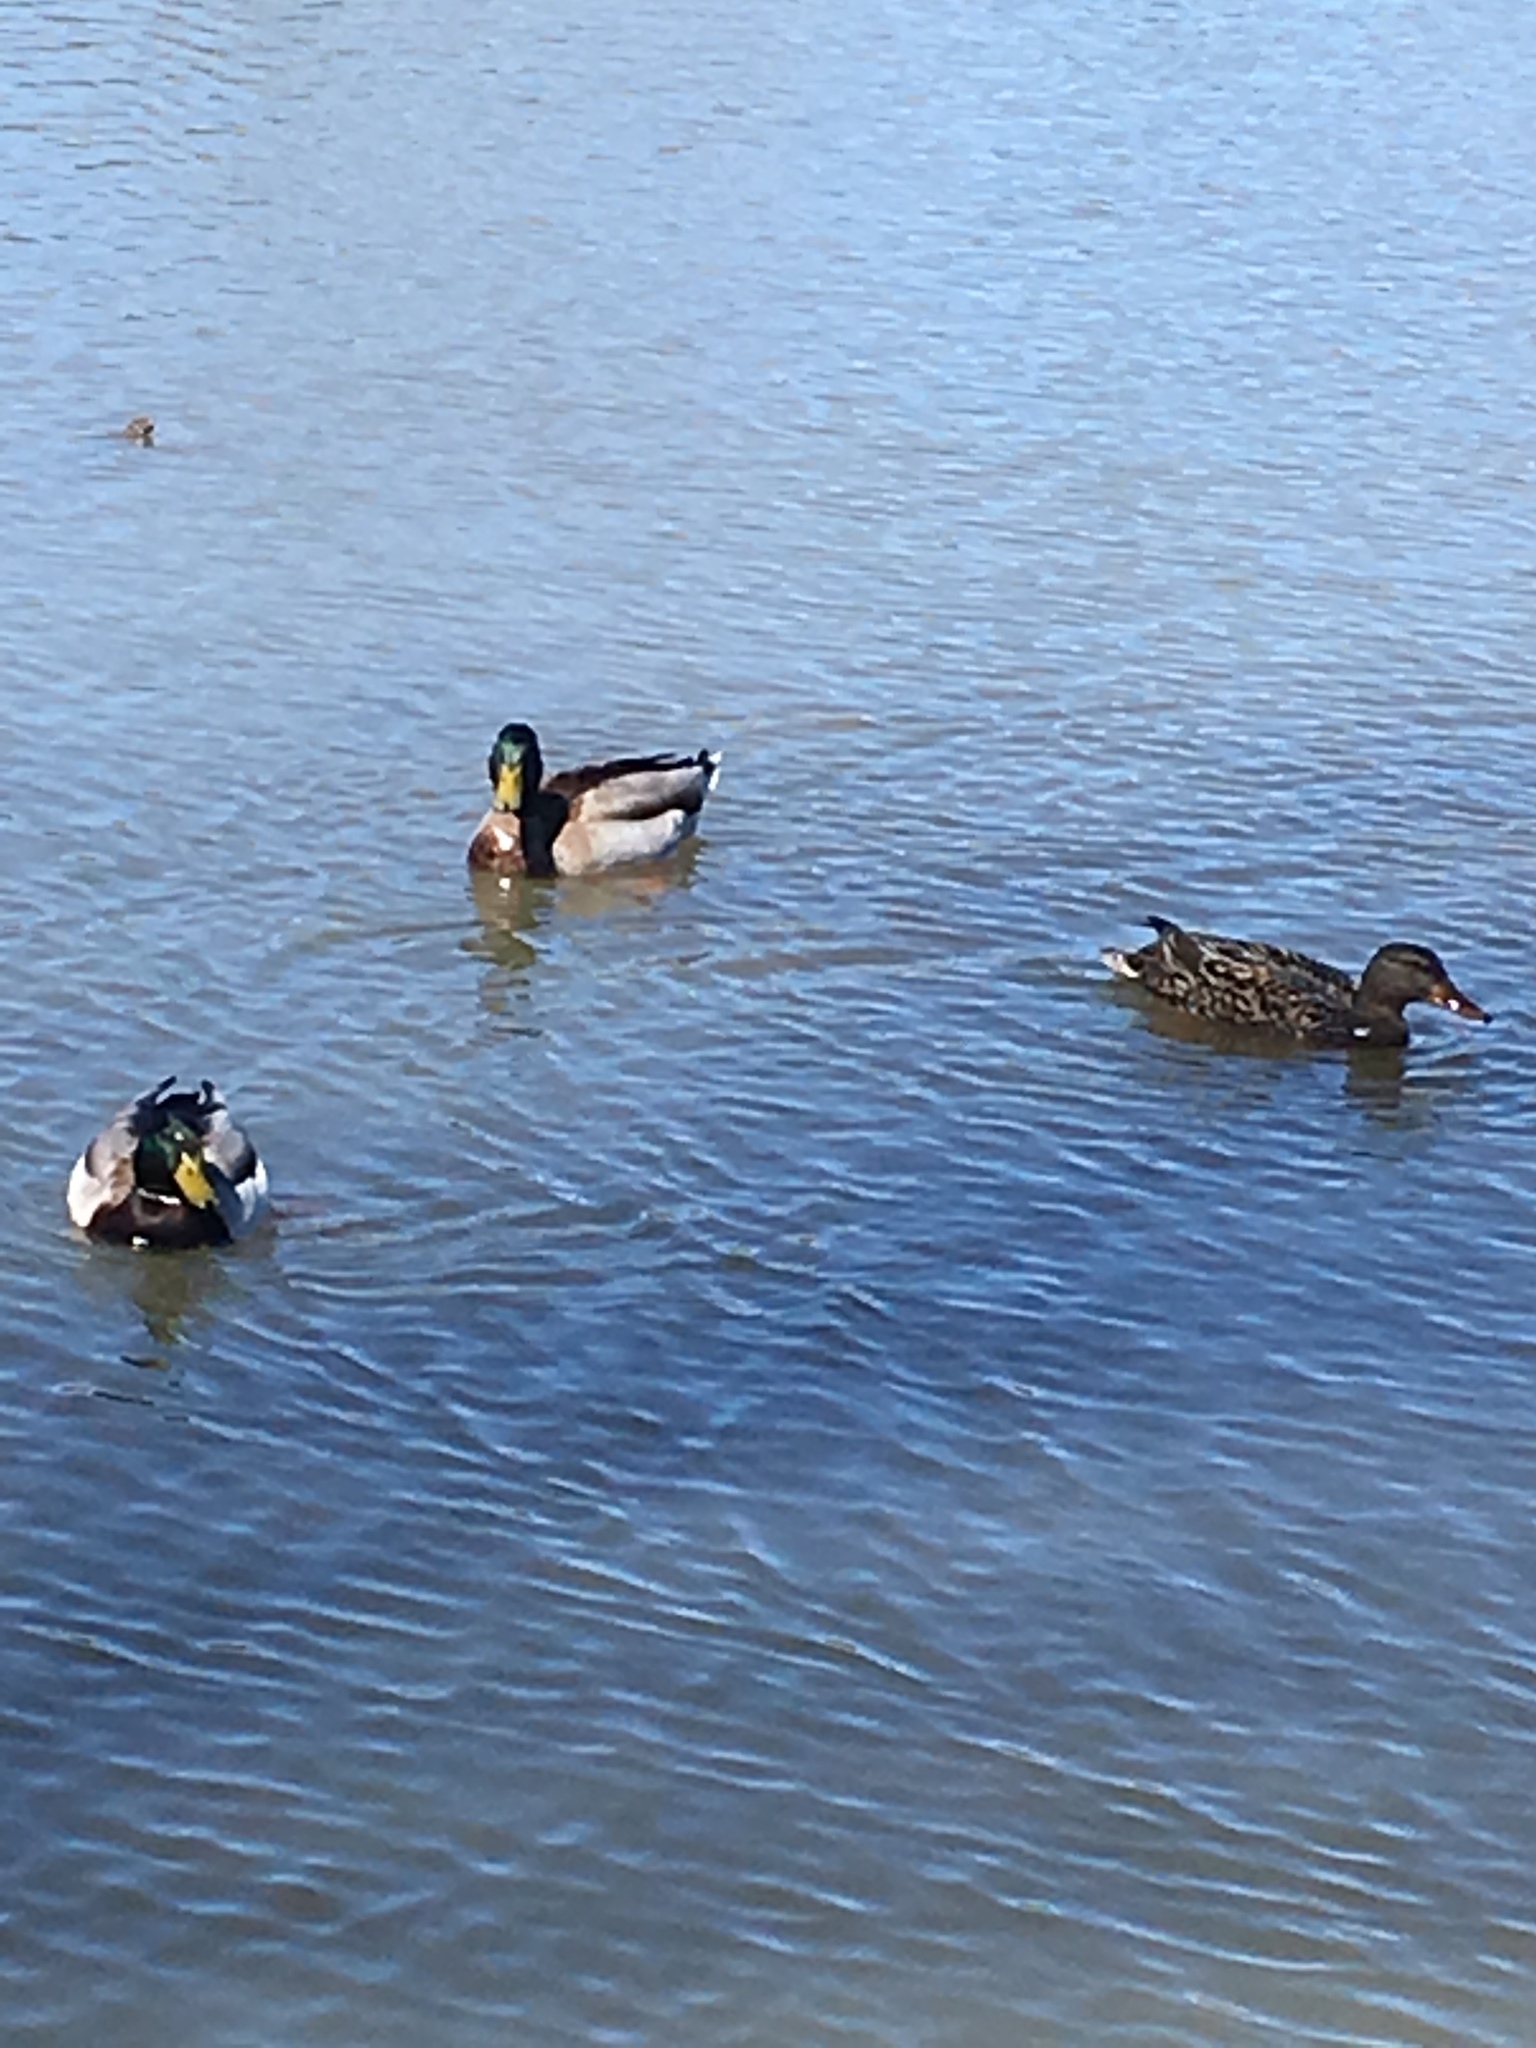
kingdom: Animalia
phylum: Chordata
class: Aves
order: Anseriformes
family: Anatidae
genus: Anas
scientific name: Anas platyrhynchos
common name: Mallard
